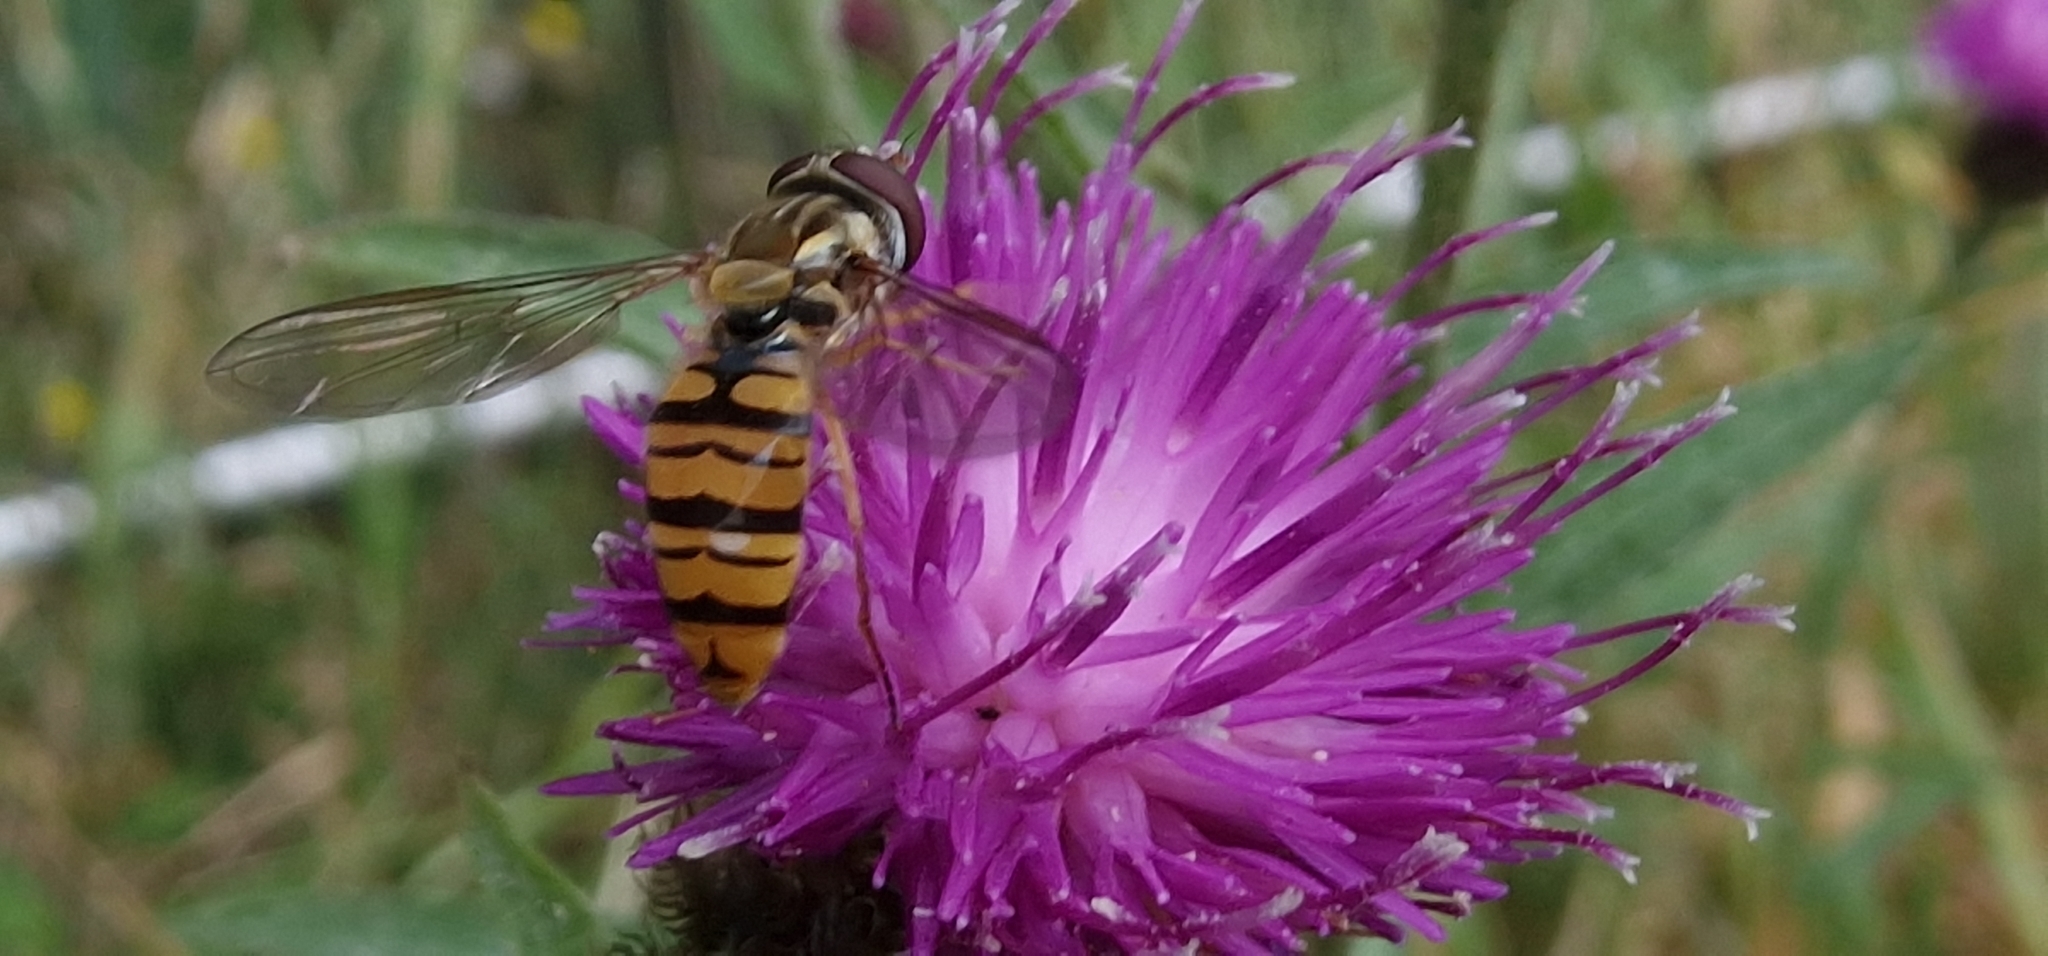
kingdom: Animalia
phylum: Arthropoda
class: Insecta
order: Diptera
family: Syrphidae
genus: Episyrphus
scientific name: Episyrphus balteatus
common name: Marmalade hoverfly
